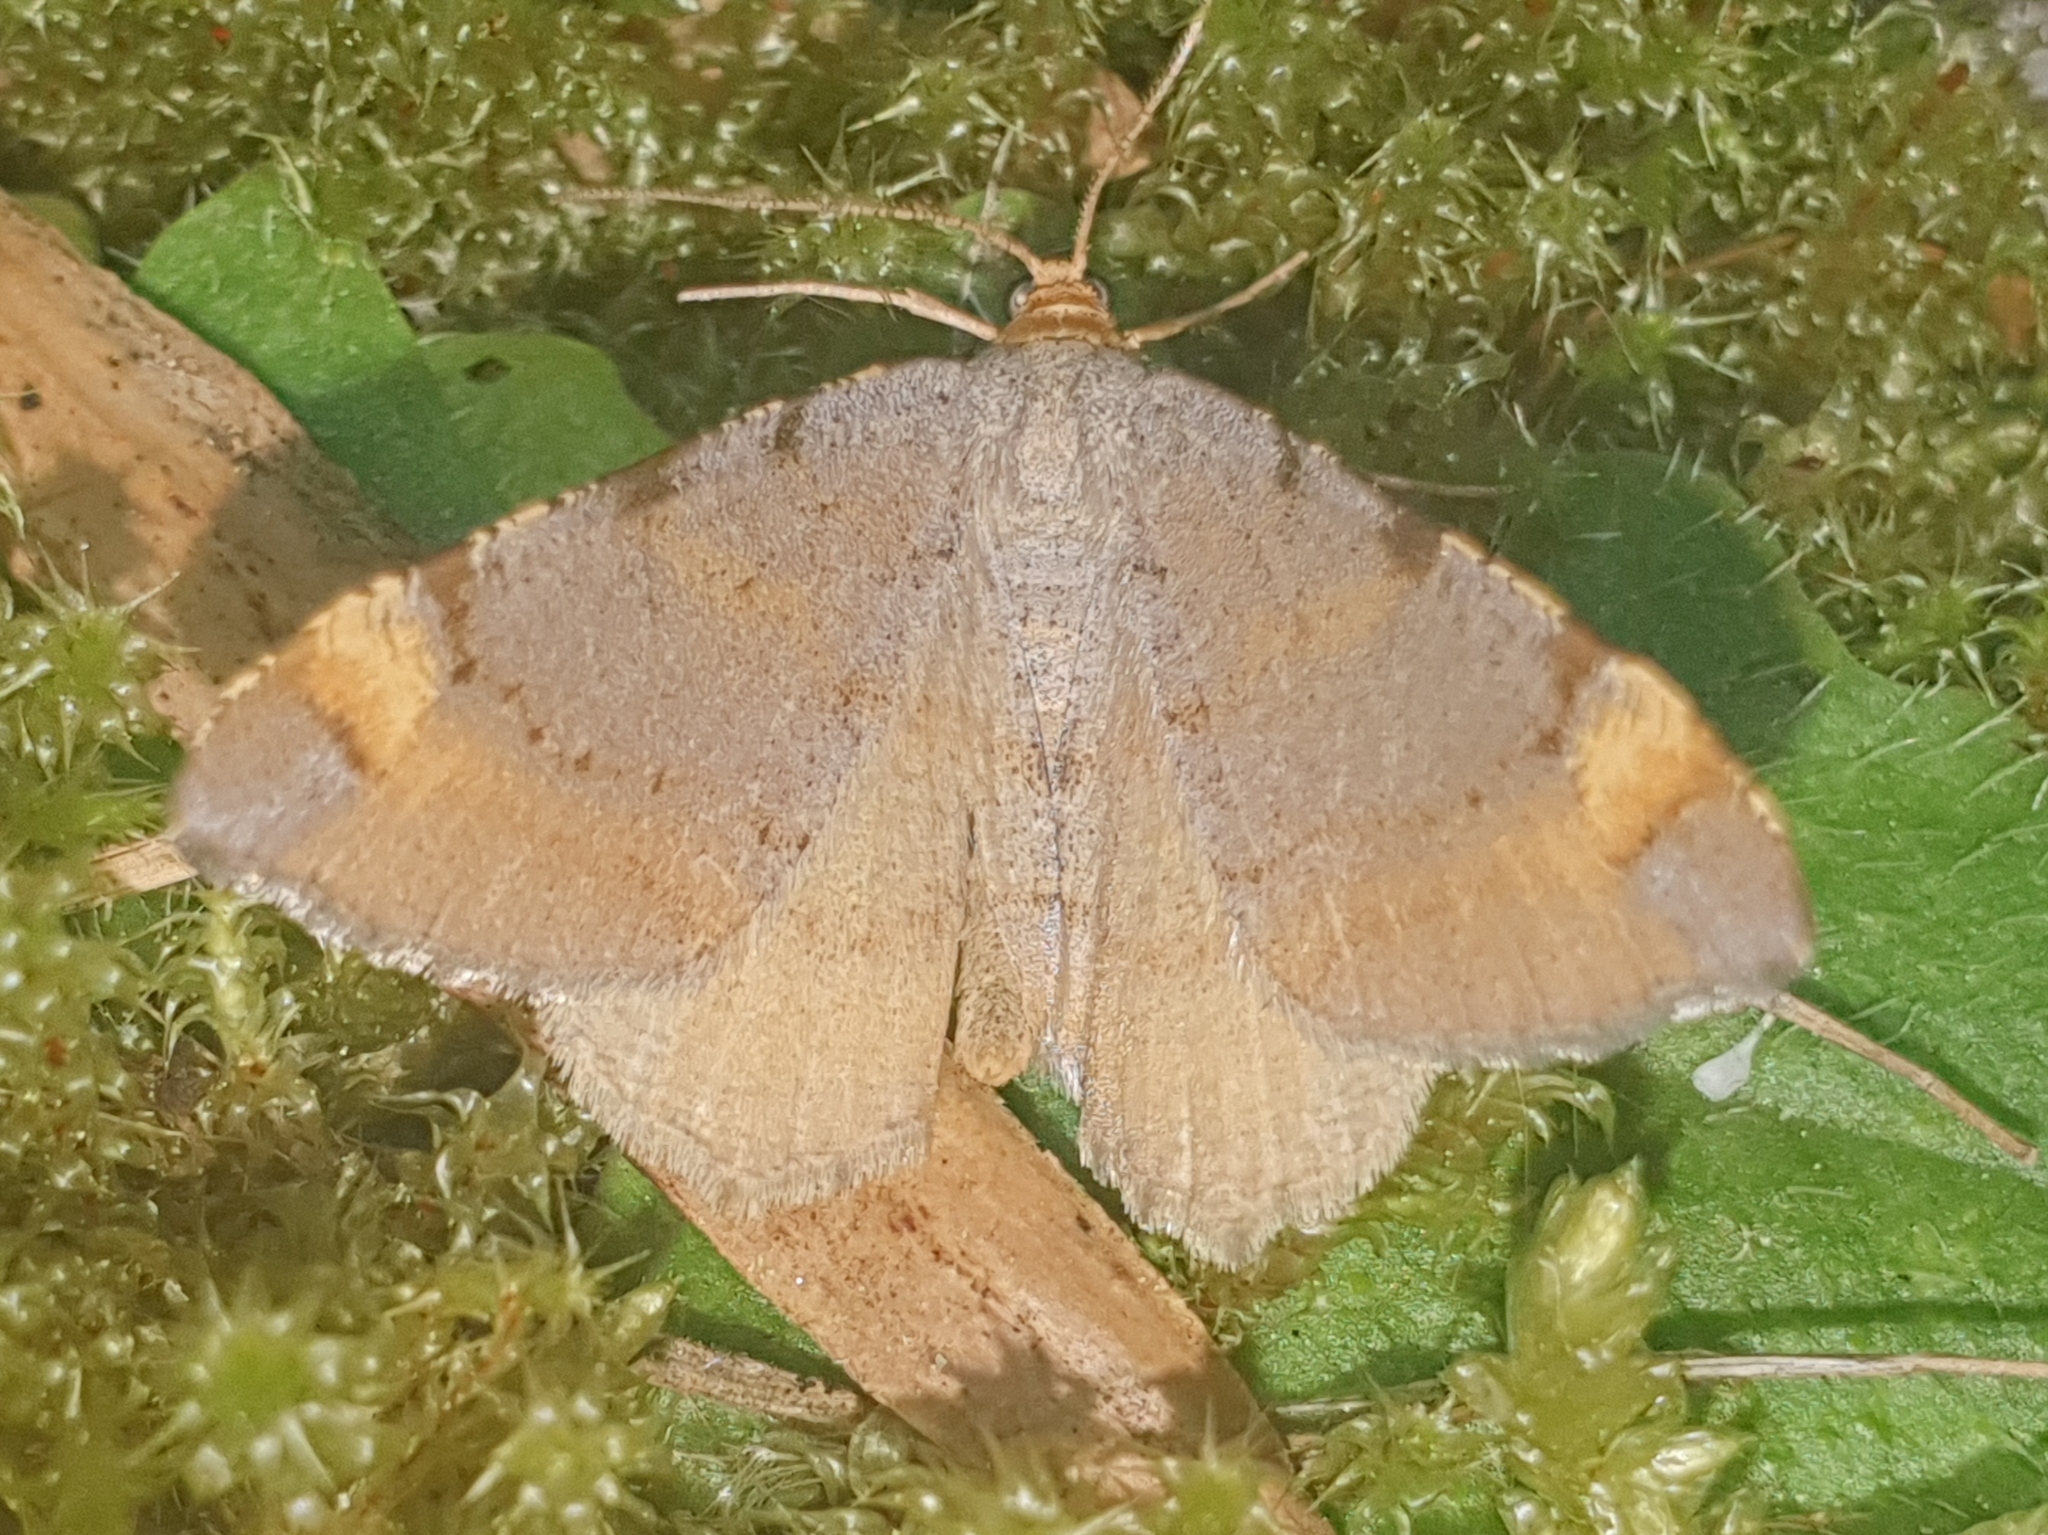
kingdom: Animalia
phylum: Arthropoda
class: Insecta
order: Lepidoptera
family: Geometridae
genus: Macaria
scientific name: Macaria liturata
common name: Tawny-barred angle
